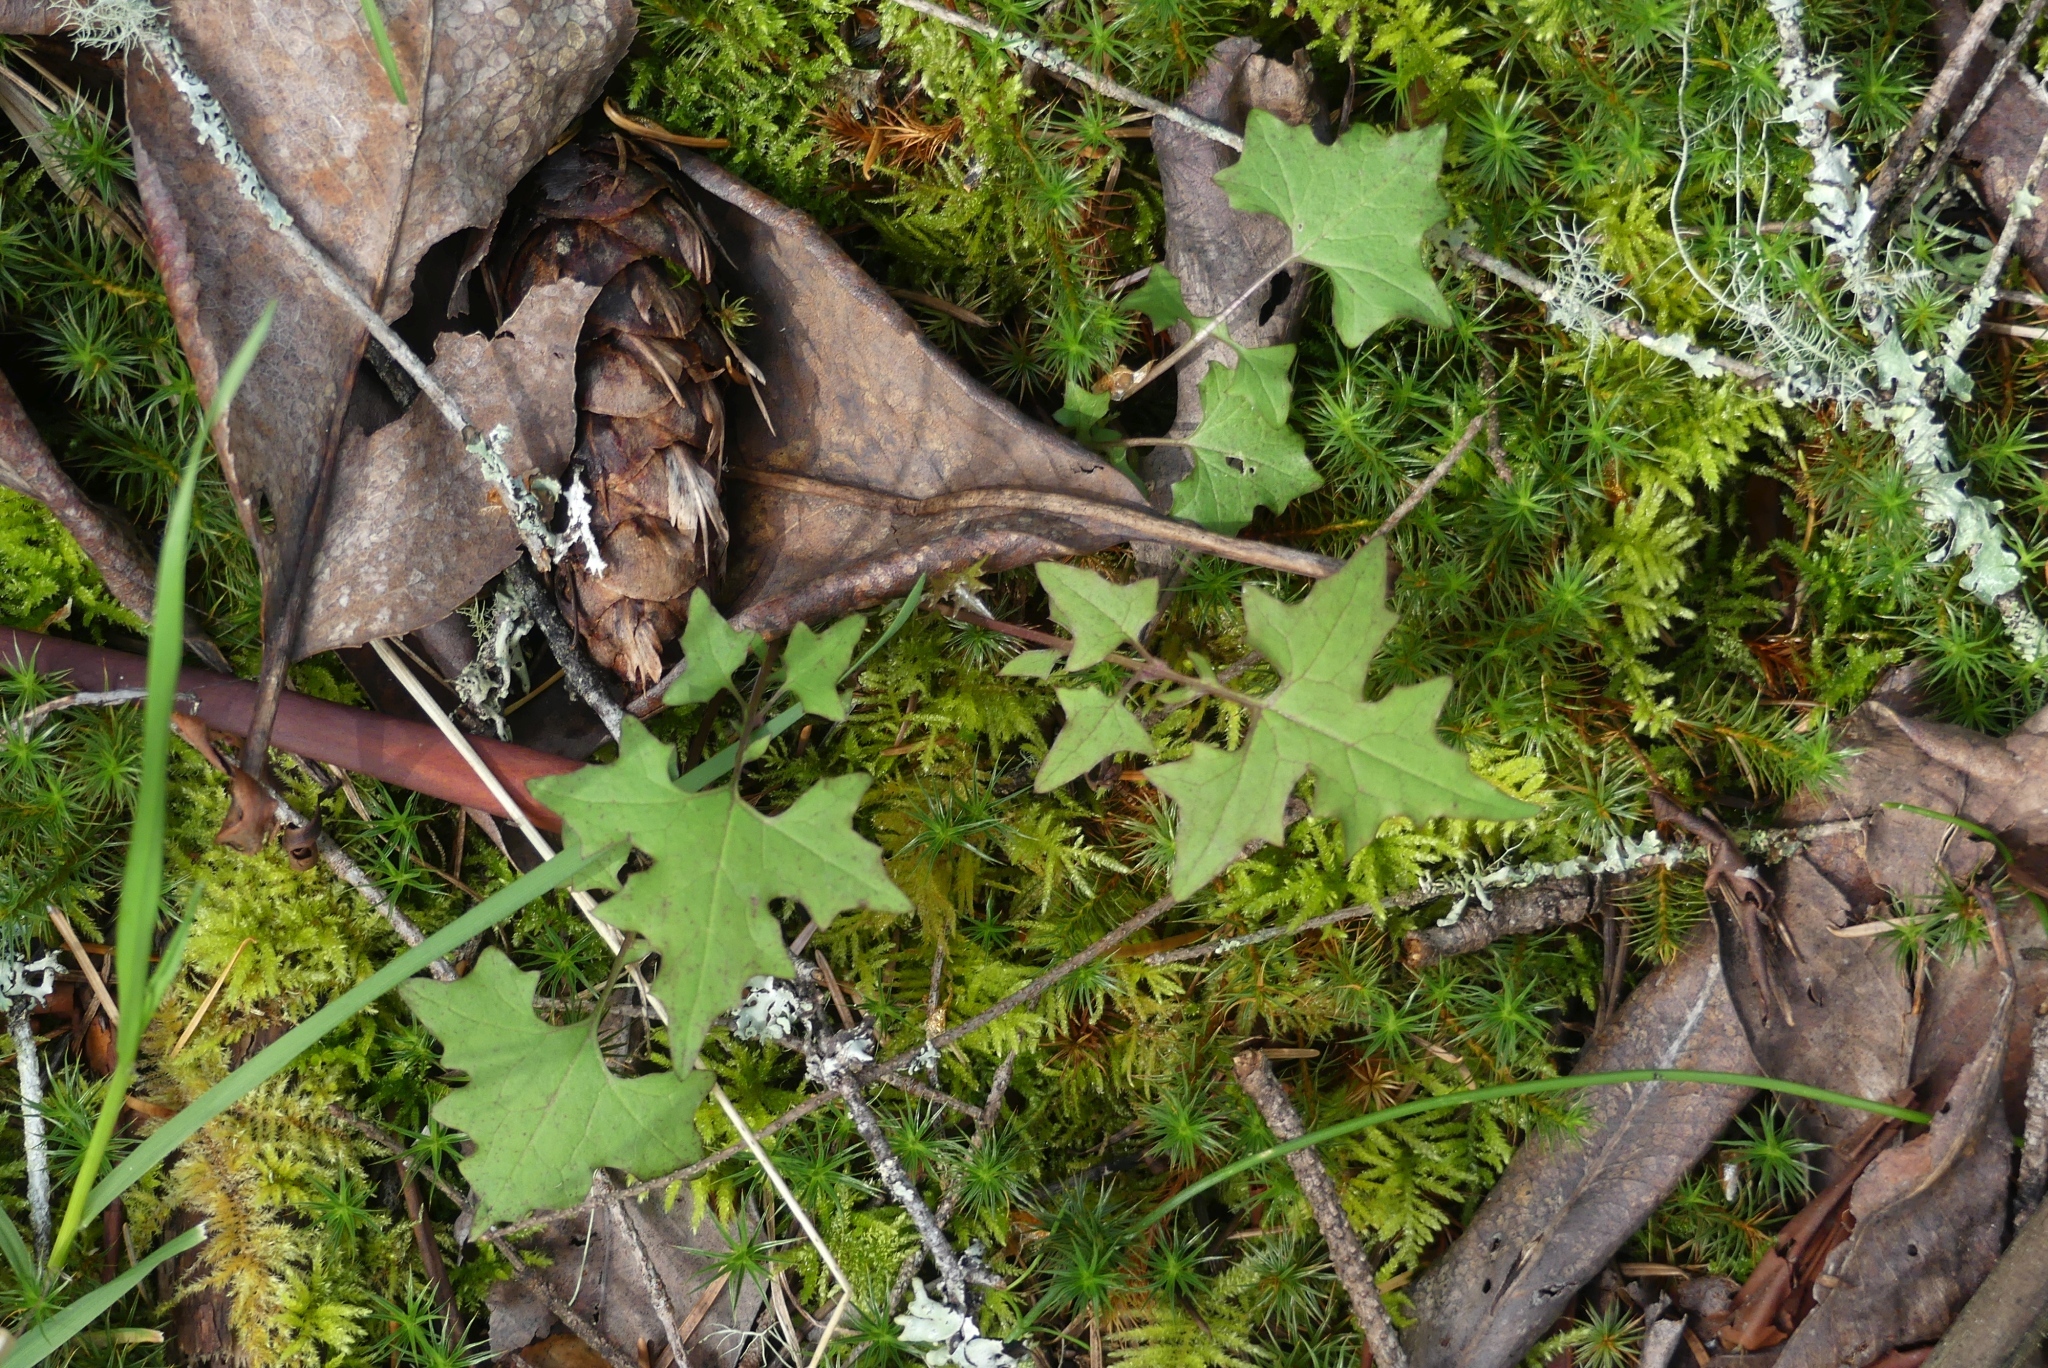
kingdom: Plantae
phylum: Tracheophyta
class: Magnoliopsida
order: Asterales
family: Asteraceae
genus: Mycelis
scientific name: Mycelis muralis
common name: Wall lettuce
